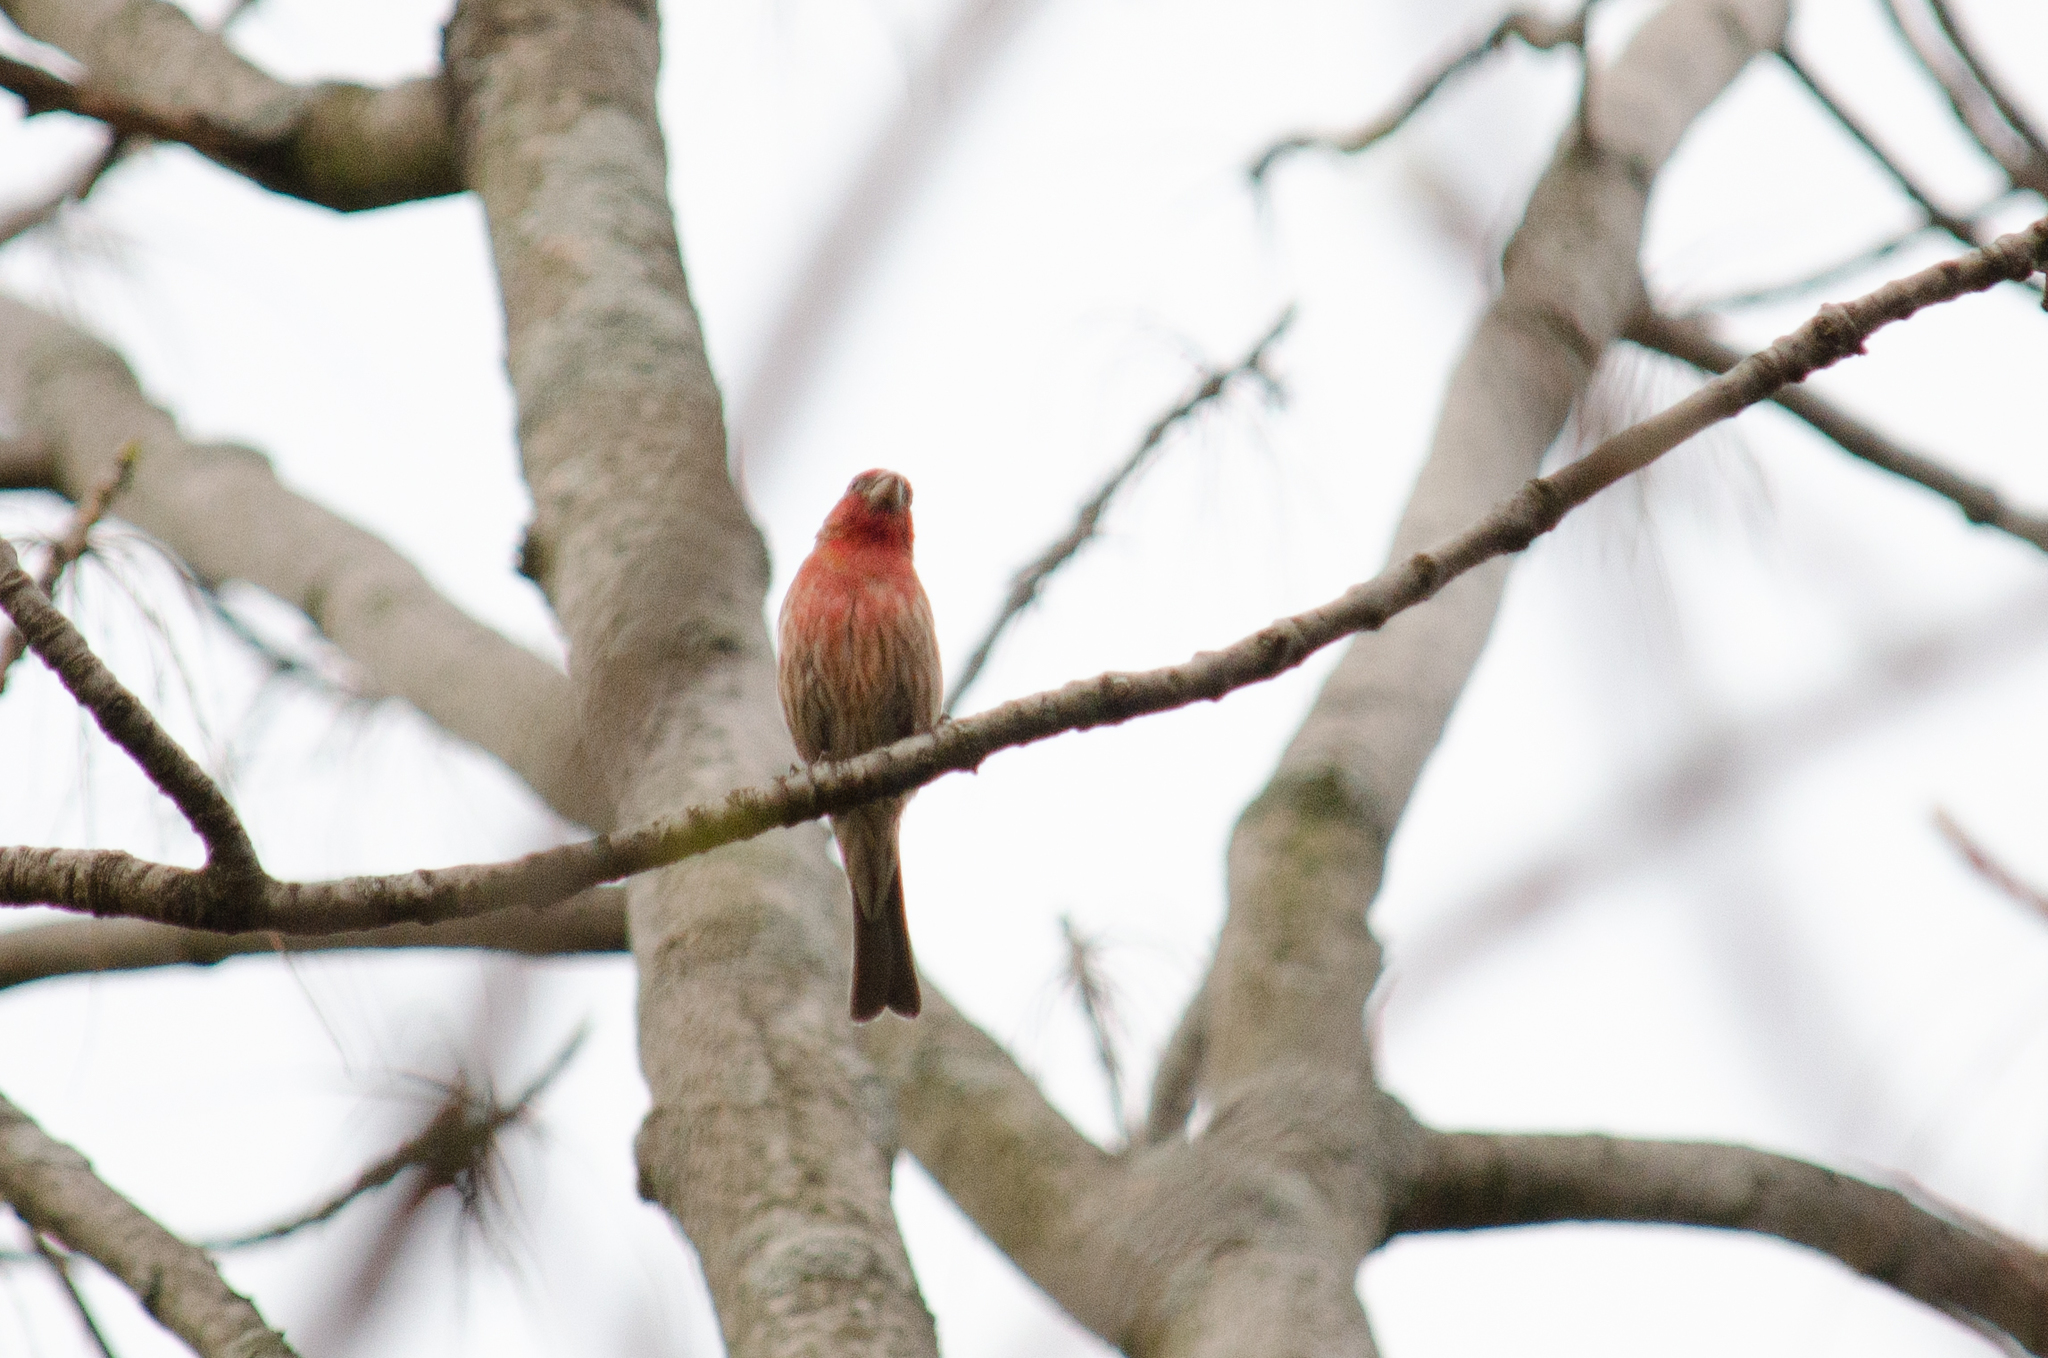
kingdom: Animalia
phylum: Chordata
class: Aves
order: Passeriformes
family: Fringillidae
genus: Haemorhous
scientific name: Haemorhous mexicanus
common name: House finch
